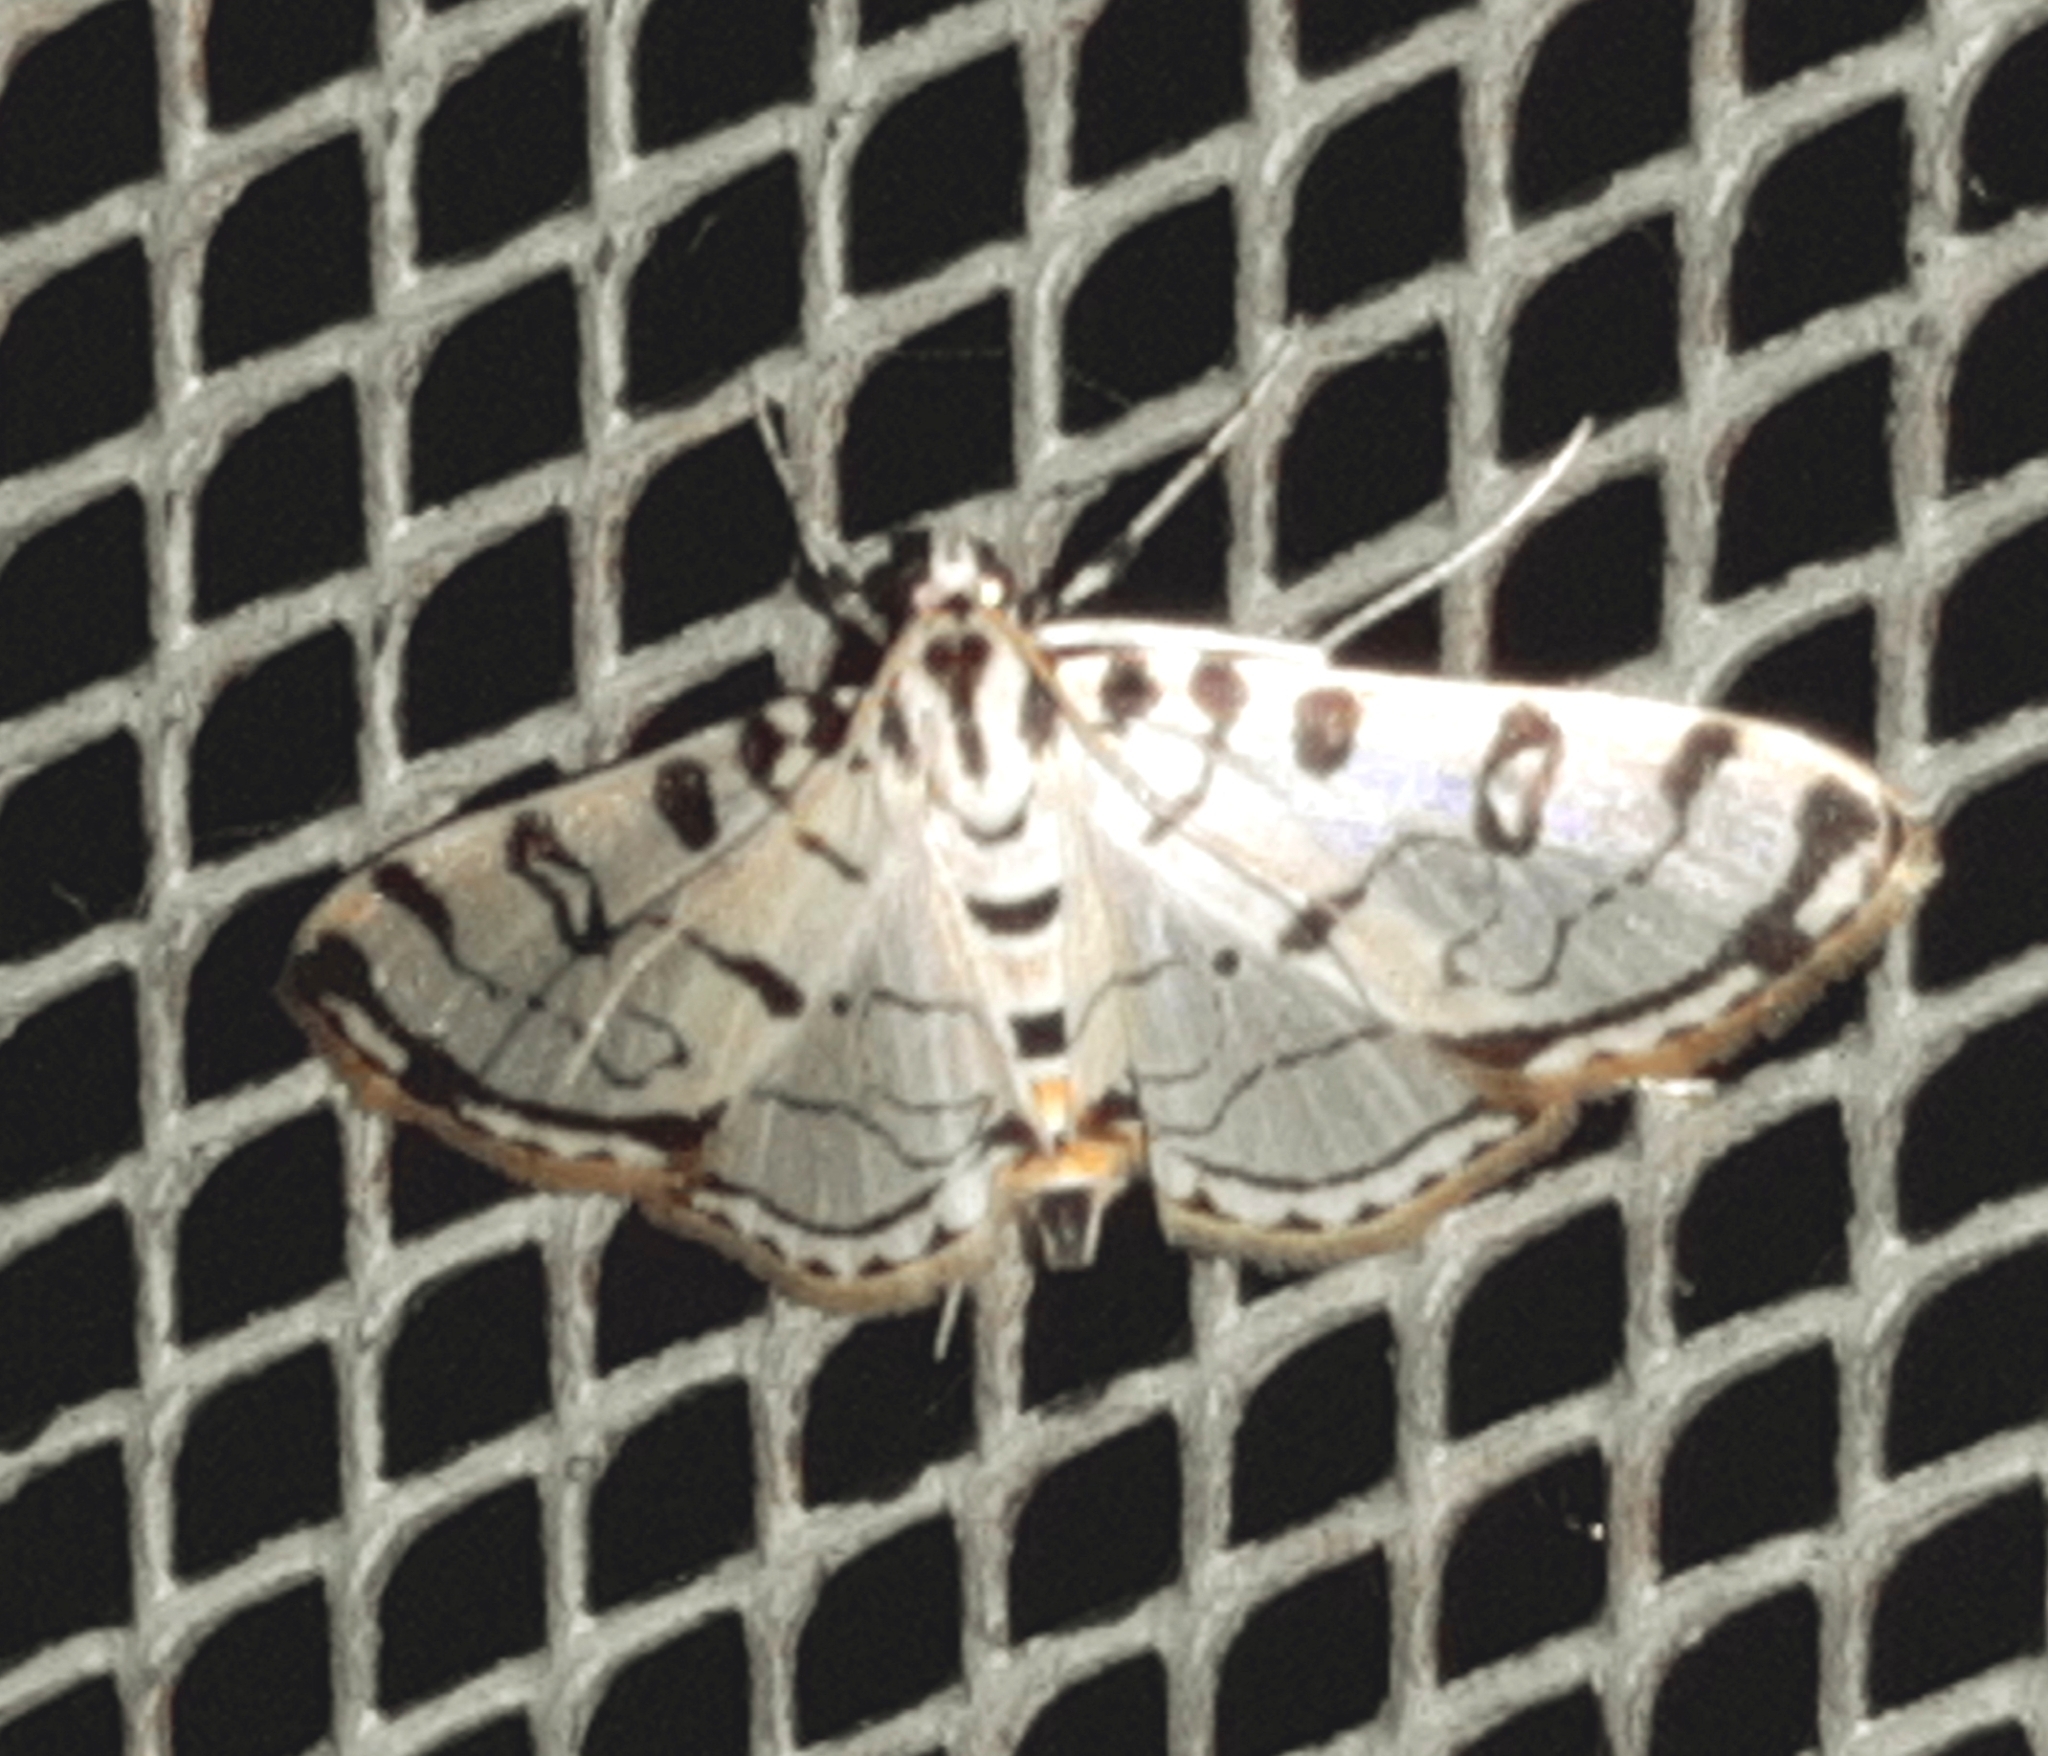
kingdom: Animalia
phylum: Arthropoda
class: Insecta
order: Lepidoptera
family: Crambidae
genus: Conchylodes
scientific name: Conchylodes terminipuncta
